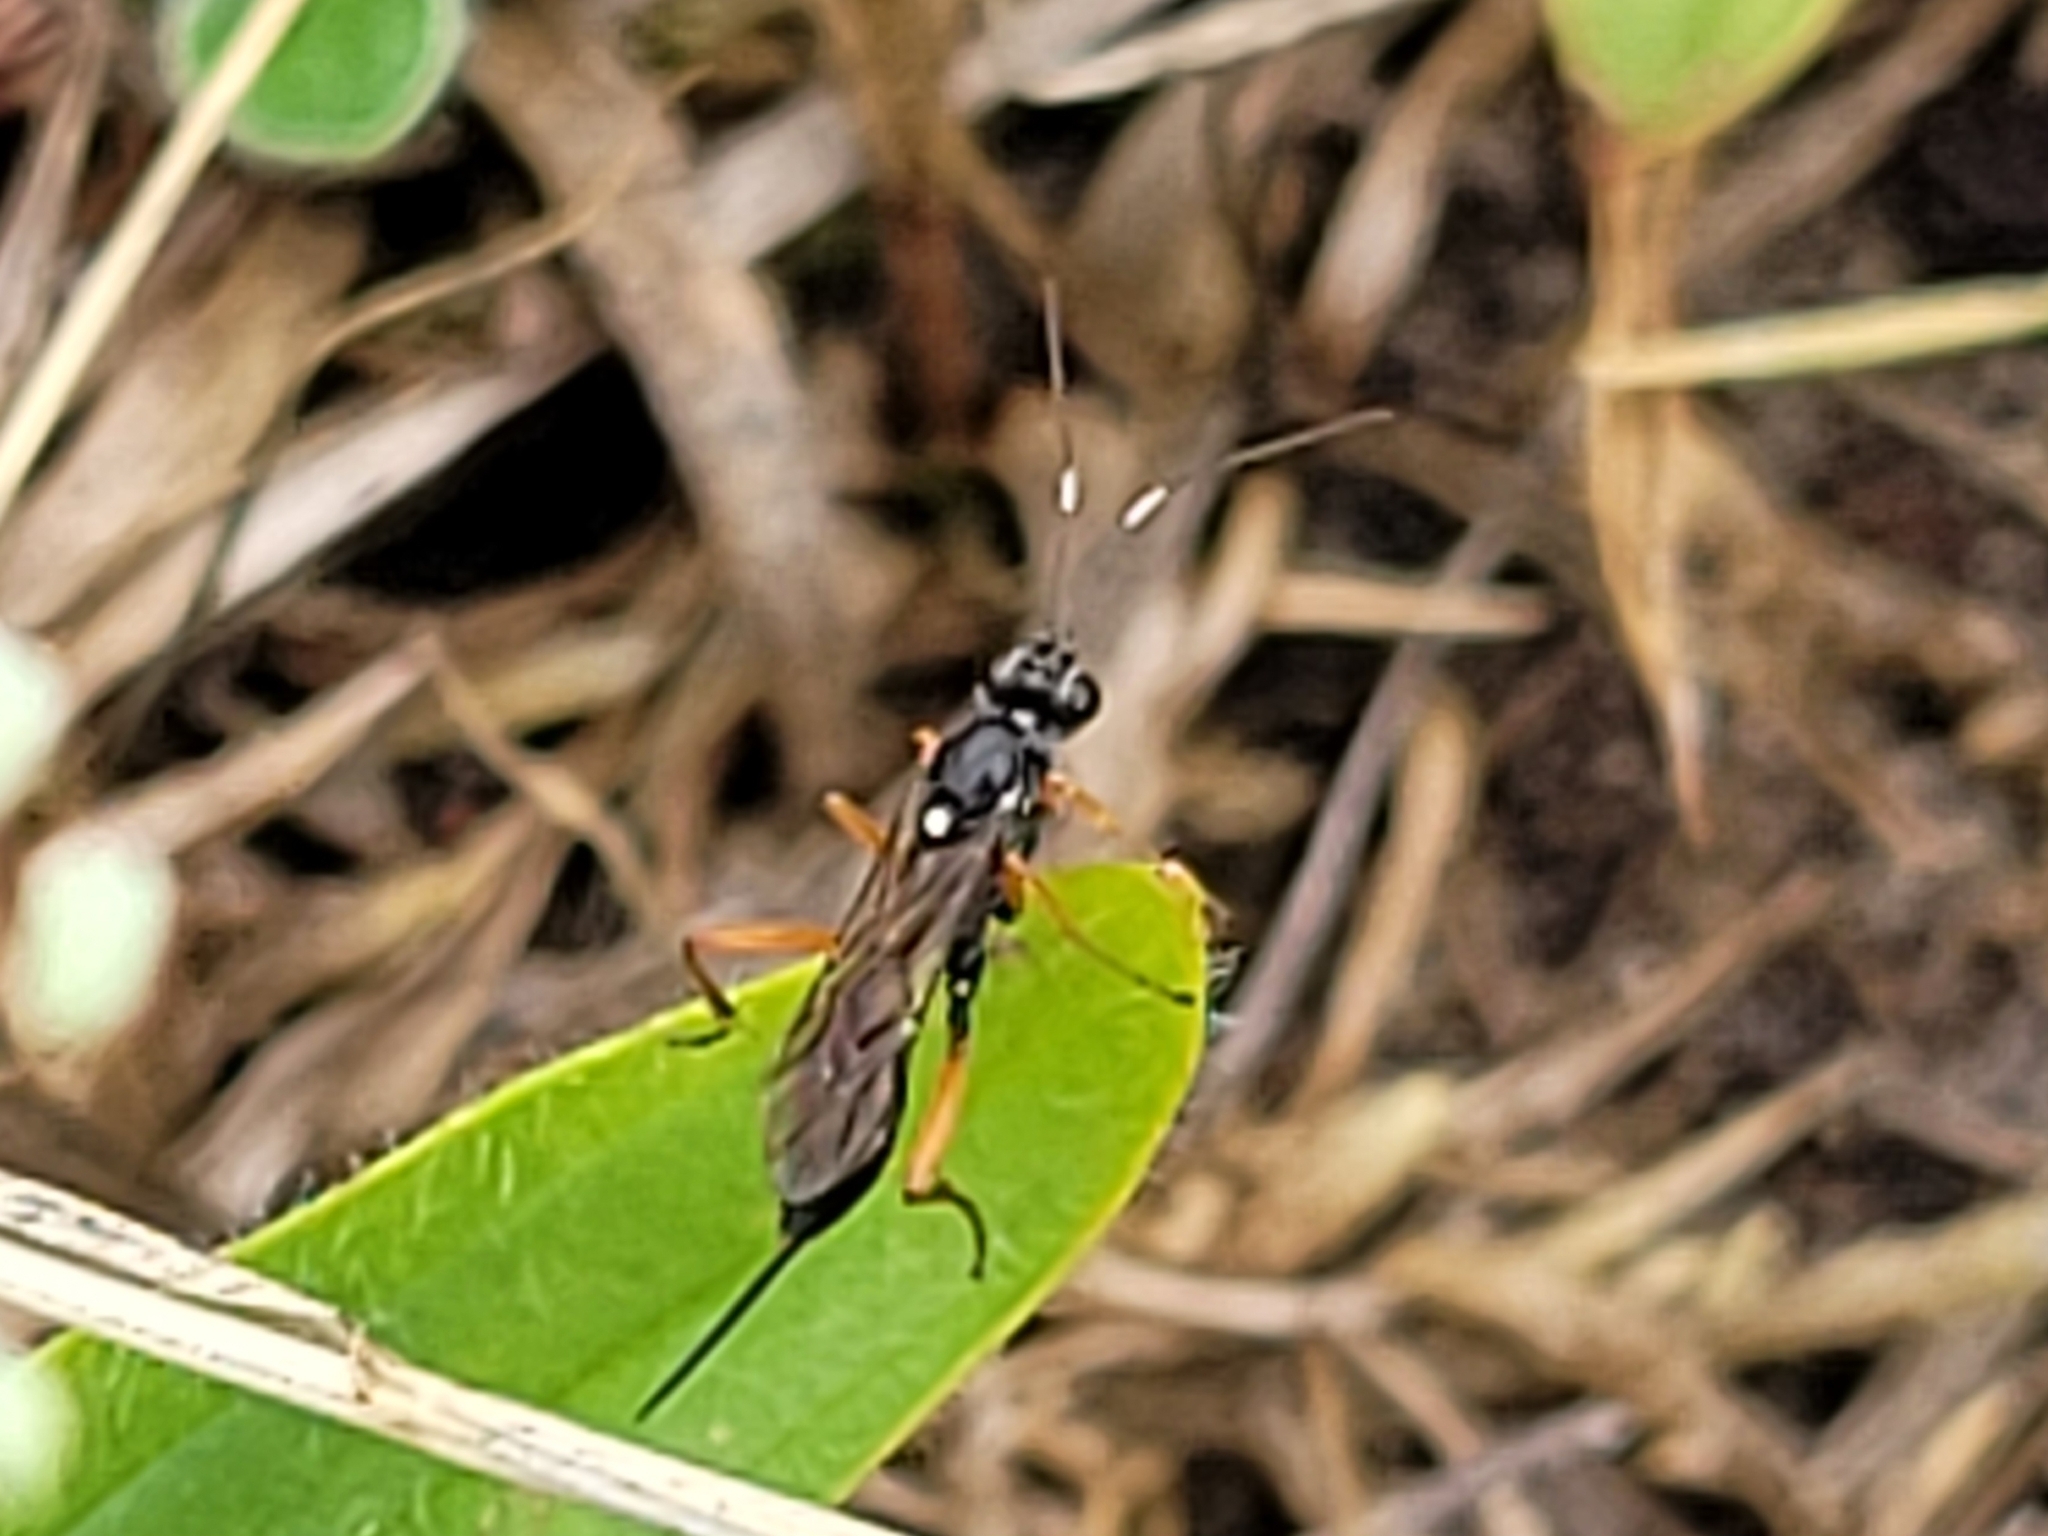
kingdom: Animalia
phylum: Arthropoda
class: Insecta
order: Hymenoptera
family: Ichneumonidae
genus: Cryptus
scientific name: Cryptus viduatorius
